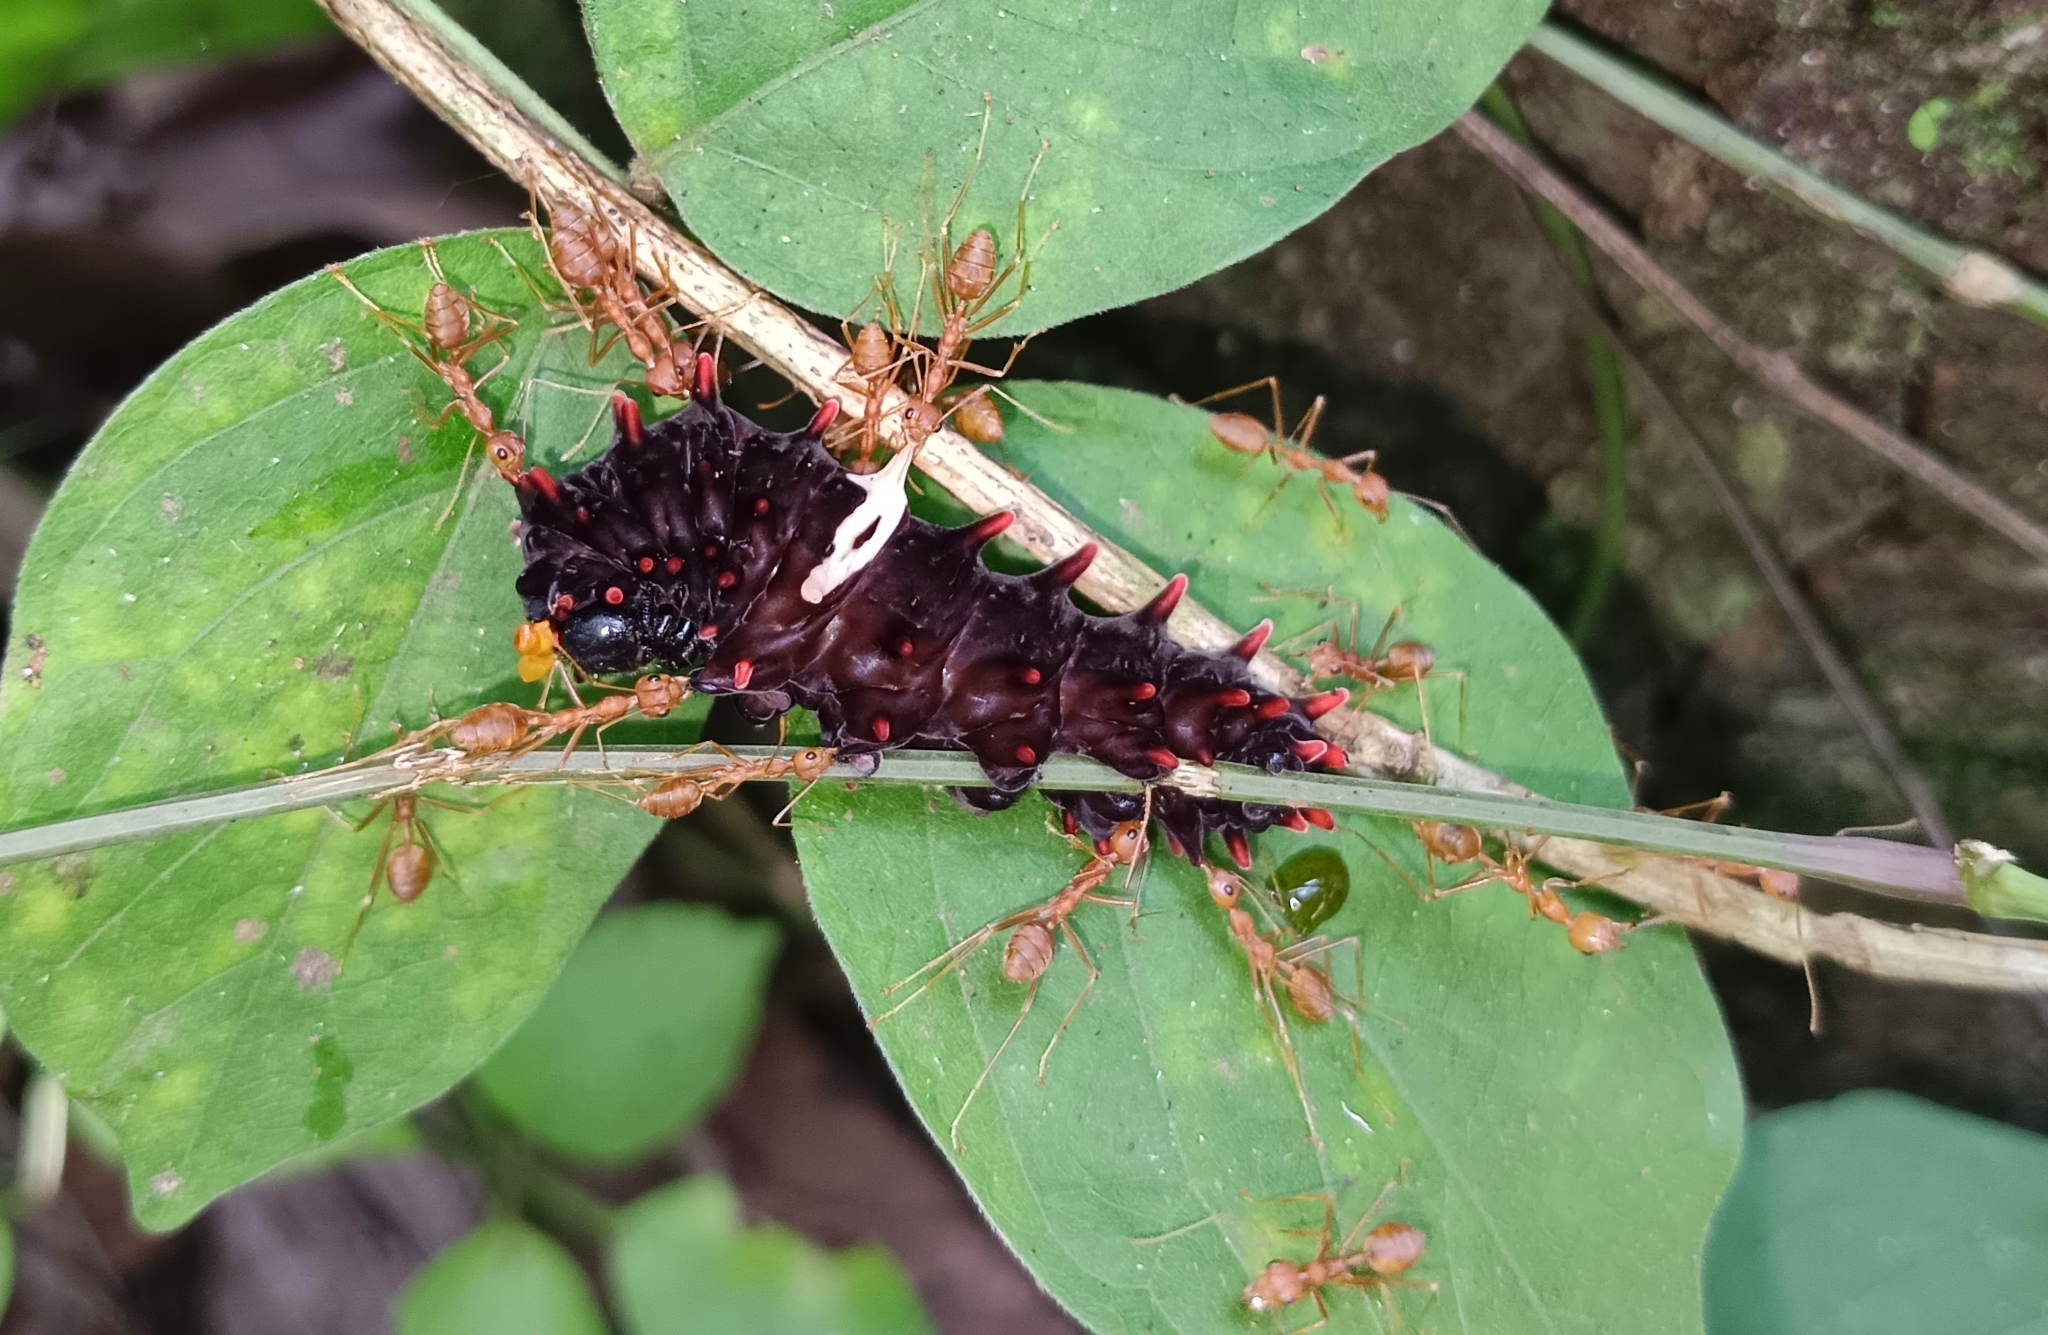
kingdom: Animalia
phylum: Arthropoda
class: Insecta
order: Lepidoptera
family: Papilionidae
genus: Pachliopta
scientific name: Pachliopta aristolochiae
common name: Common rose
